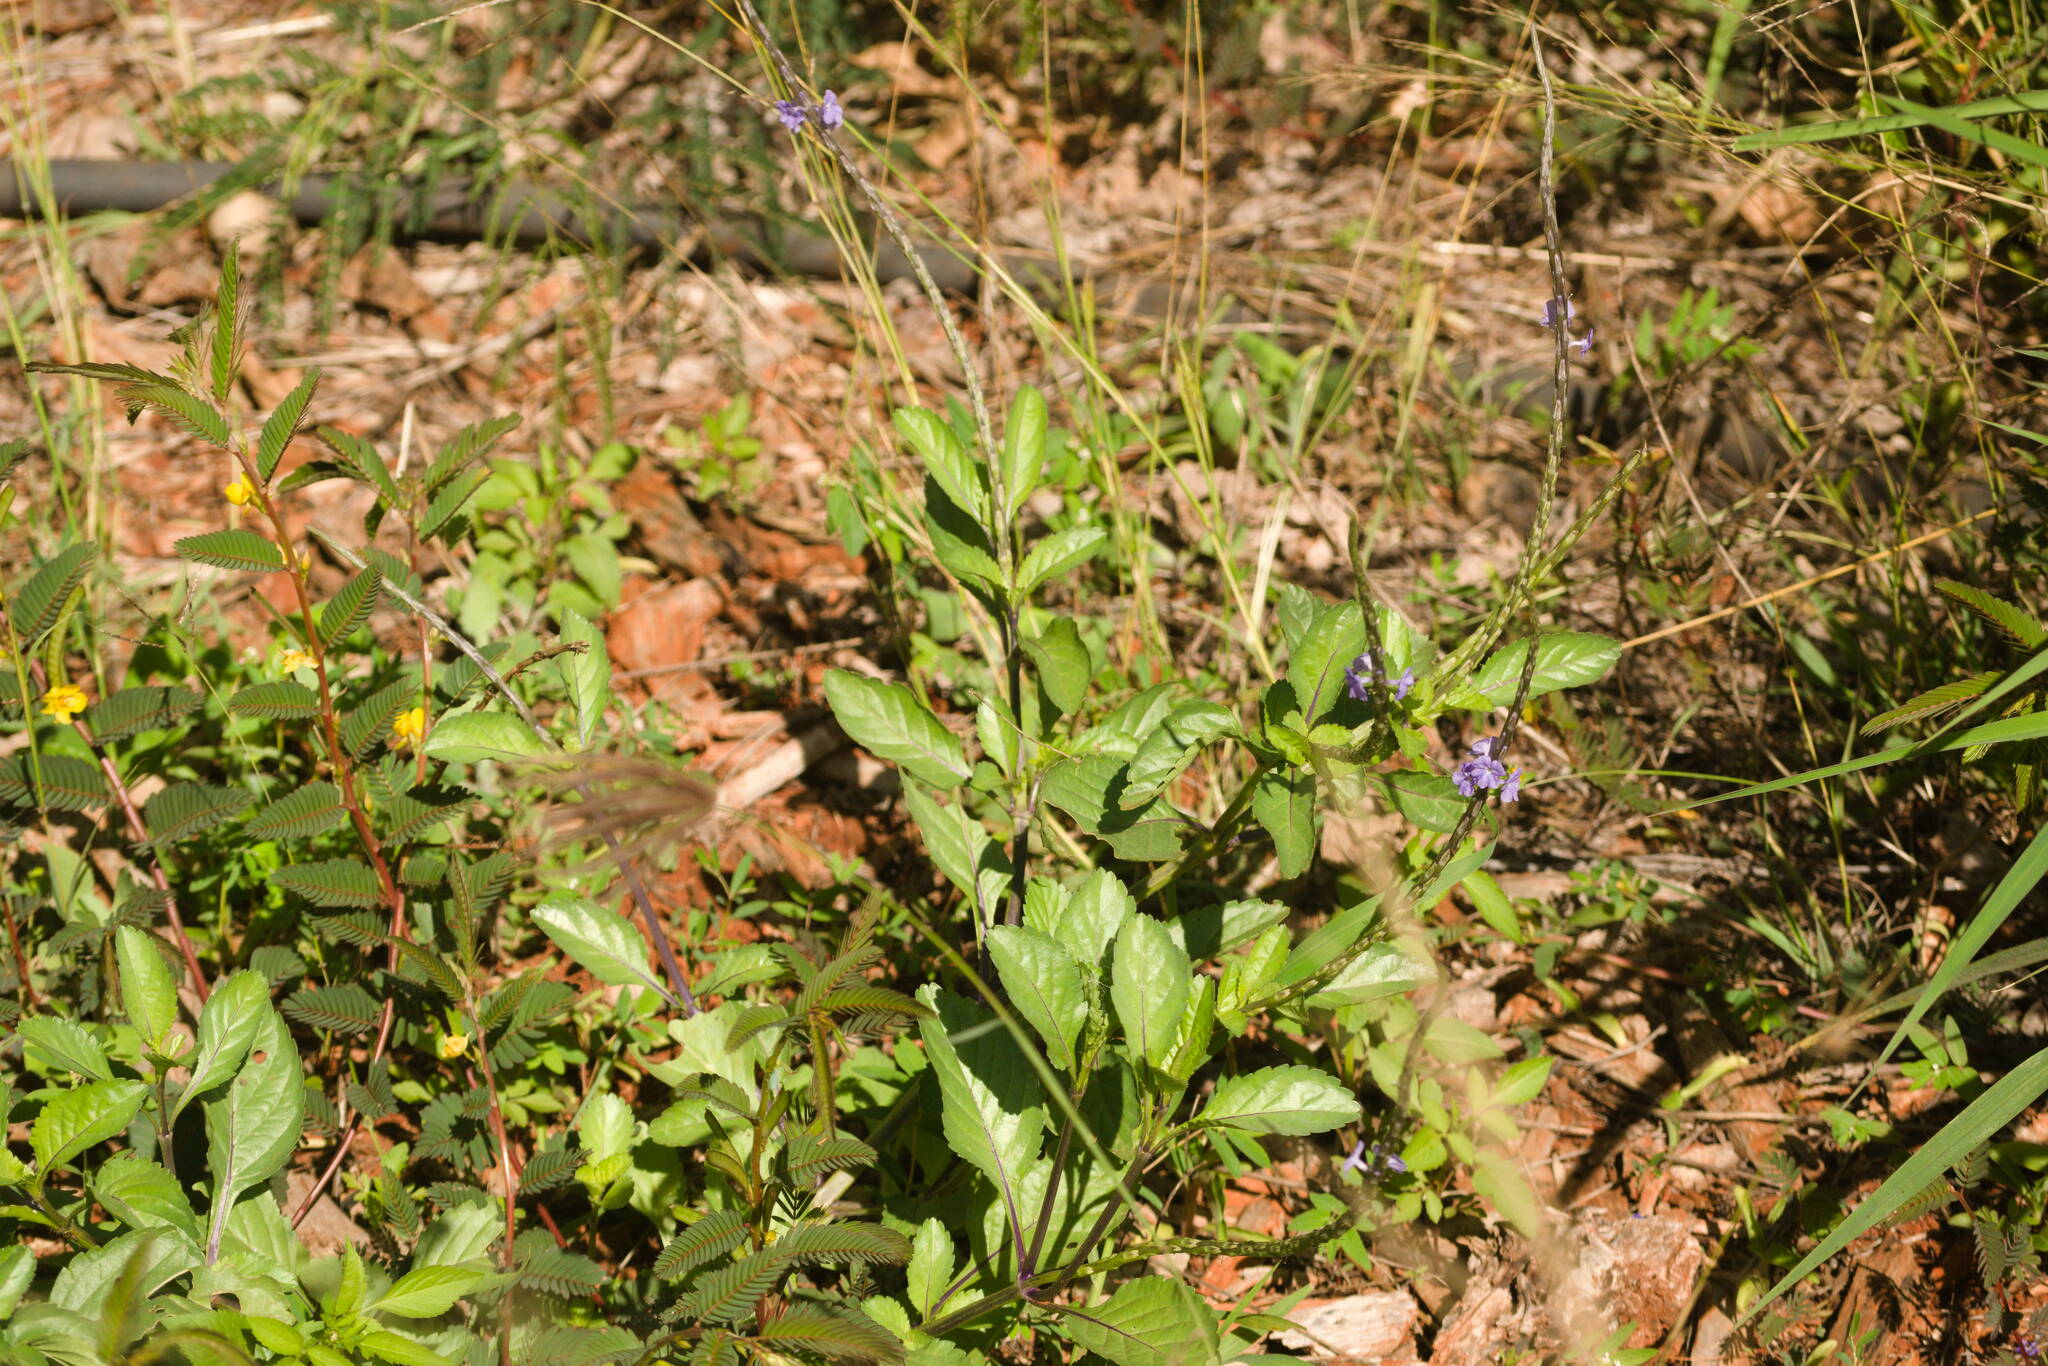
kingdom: Plantae
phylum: Tracheophyta
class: Magnoliopsida
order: Lamiales
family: Verbenaceae
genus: Stachytarpheta
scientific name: Stachytarpheta jamaicensis
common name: Light-blue snakeweed
